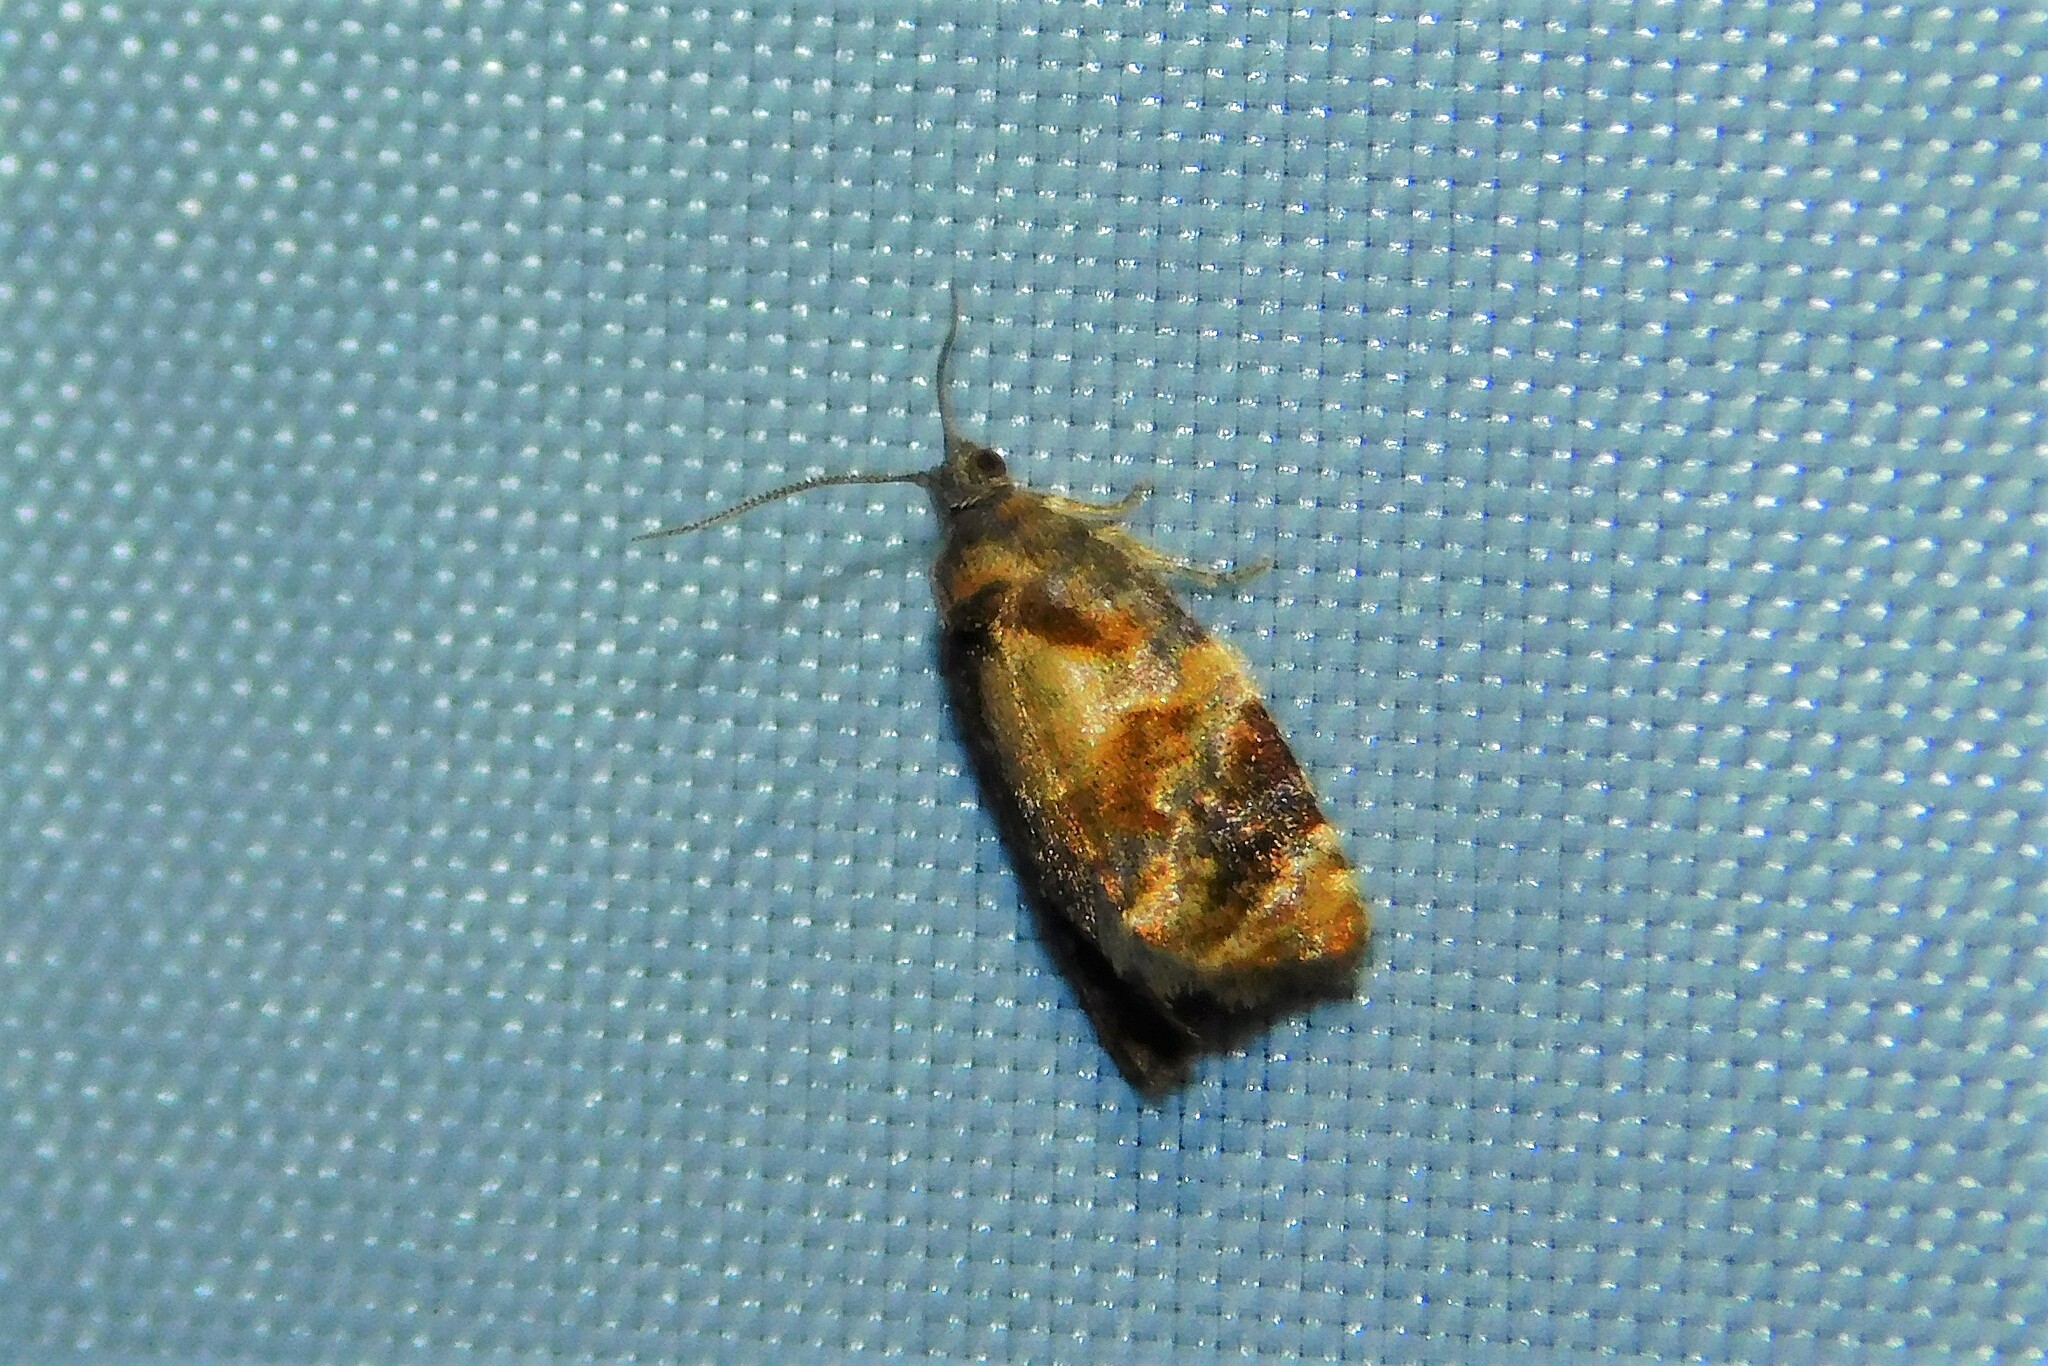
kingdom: Animalia
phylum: Arthropoda
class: Insecta
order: Lepidoptera
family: Tortricidae
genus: Ditula
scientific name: Ditula angustiorana
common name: Red-barred tortrix
